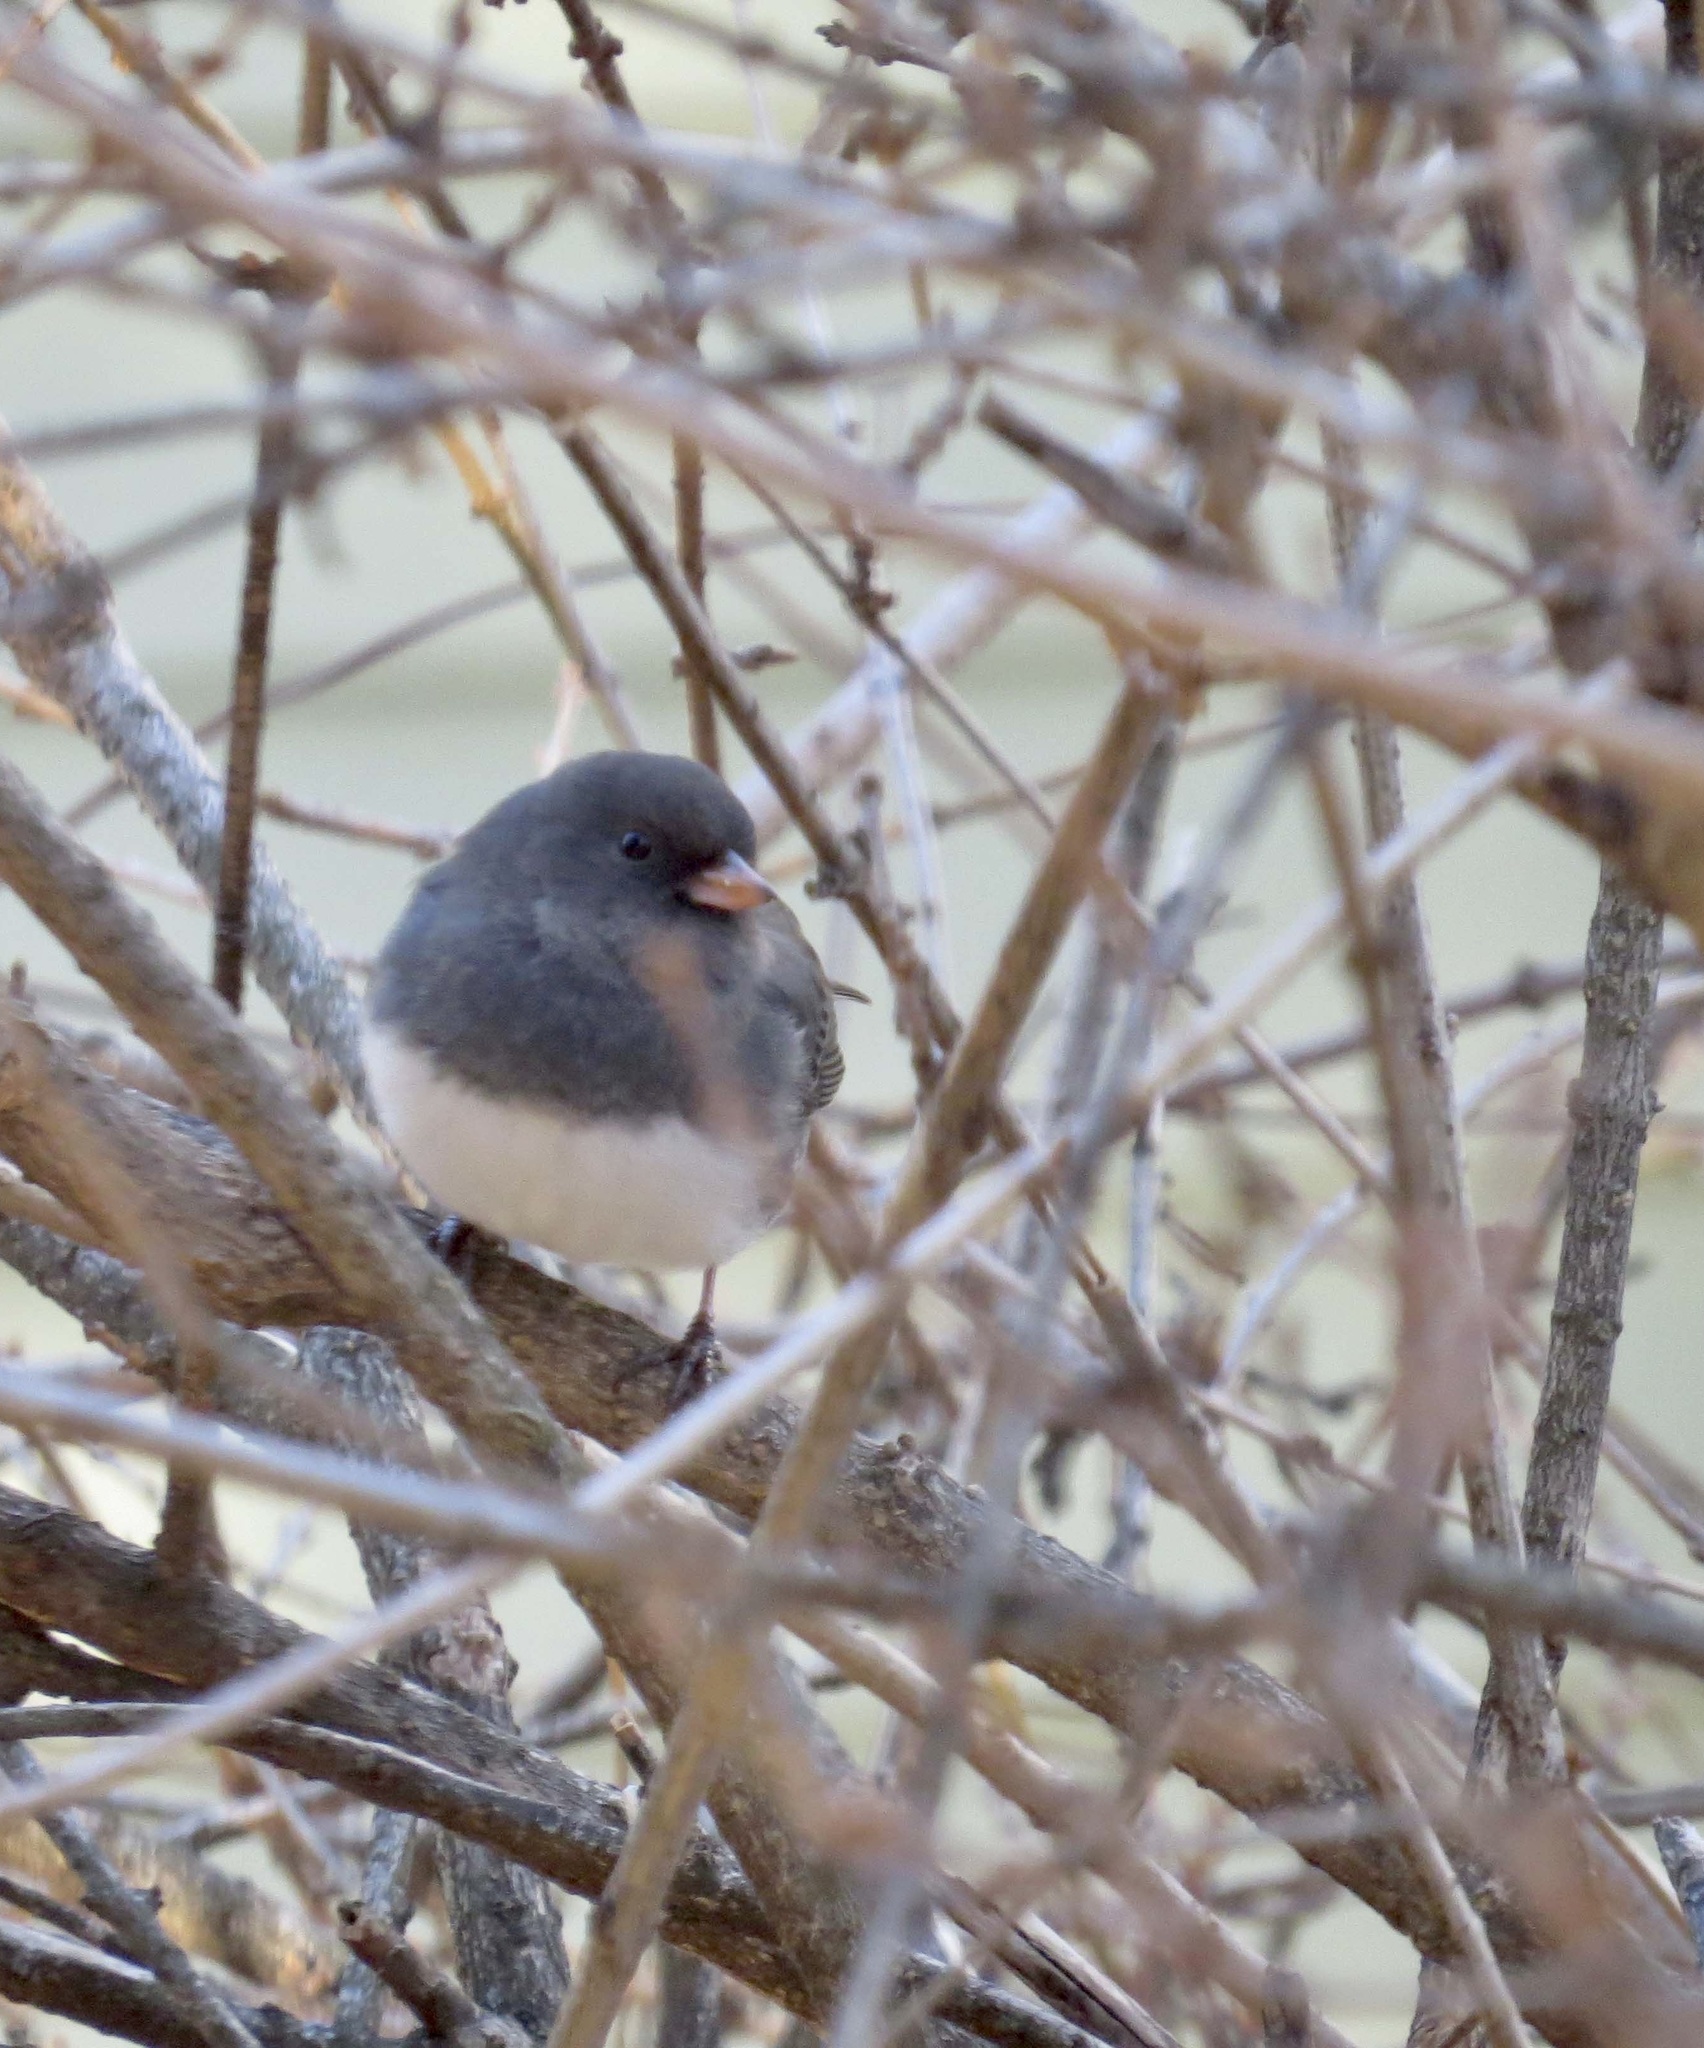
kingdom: Animalia
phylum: Chordata
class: Aves
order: Passeriformes
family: Passerellidae
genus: Junco
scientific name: Junco hyemalis
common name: Dark-eyed junco
